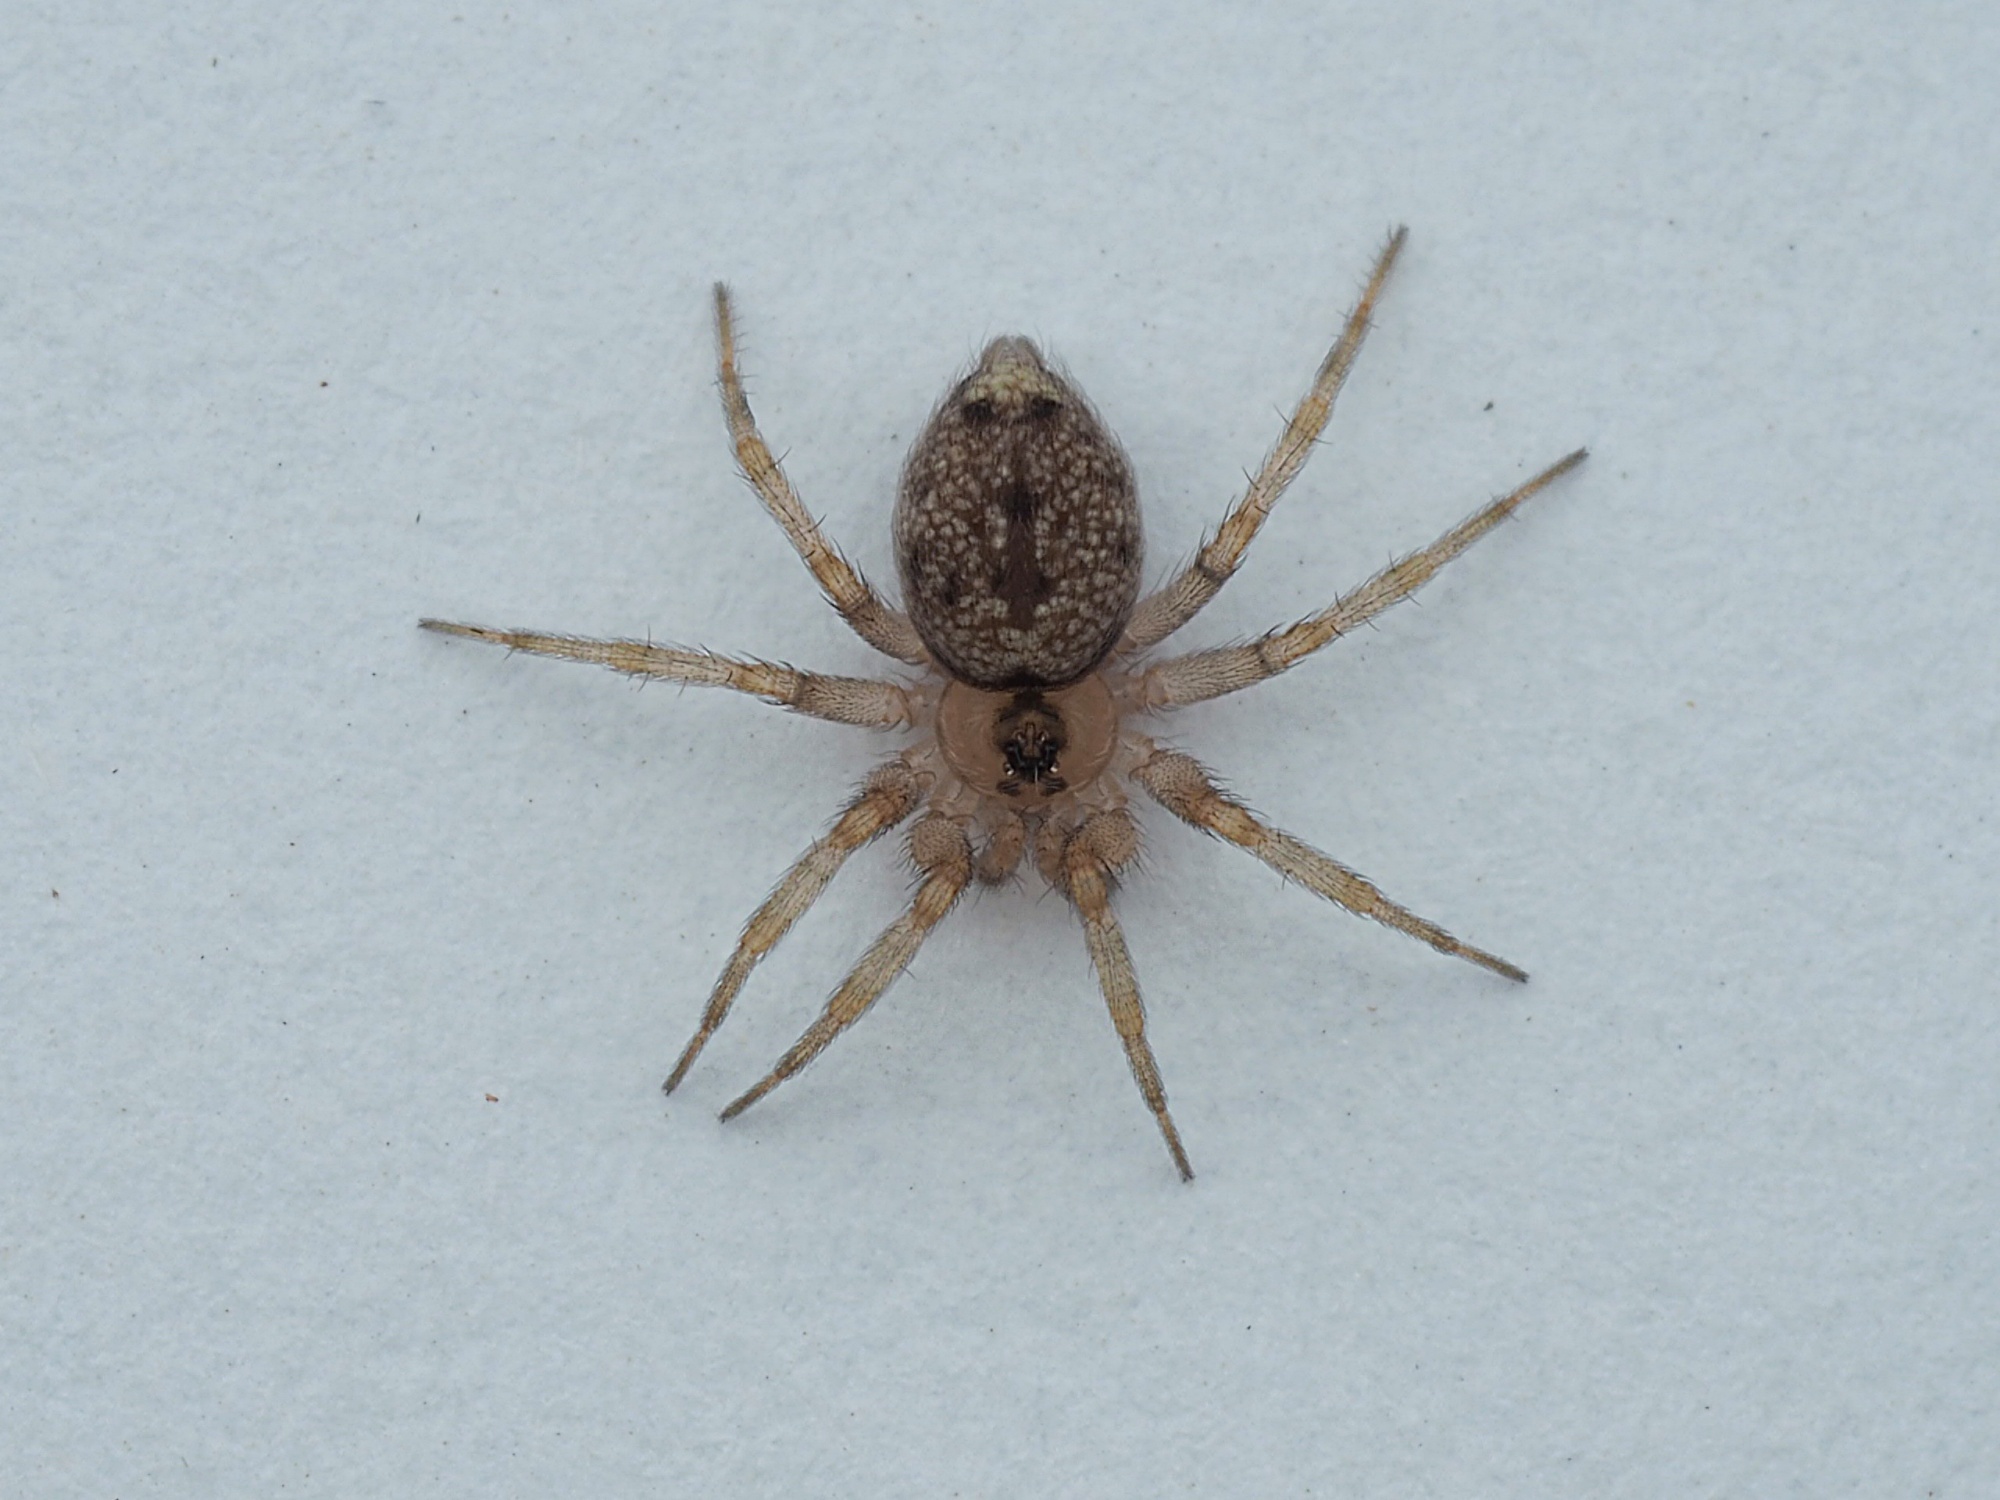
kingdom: Animalia
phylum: Arthropoda
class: Arachnida
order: Araneae
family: Oecobiidae
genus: Oecobius
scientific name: Oecobius navus
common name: Flatmesh weaver
